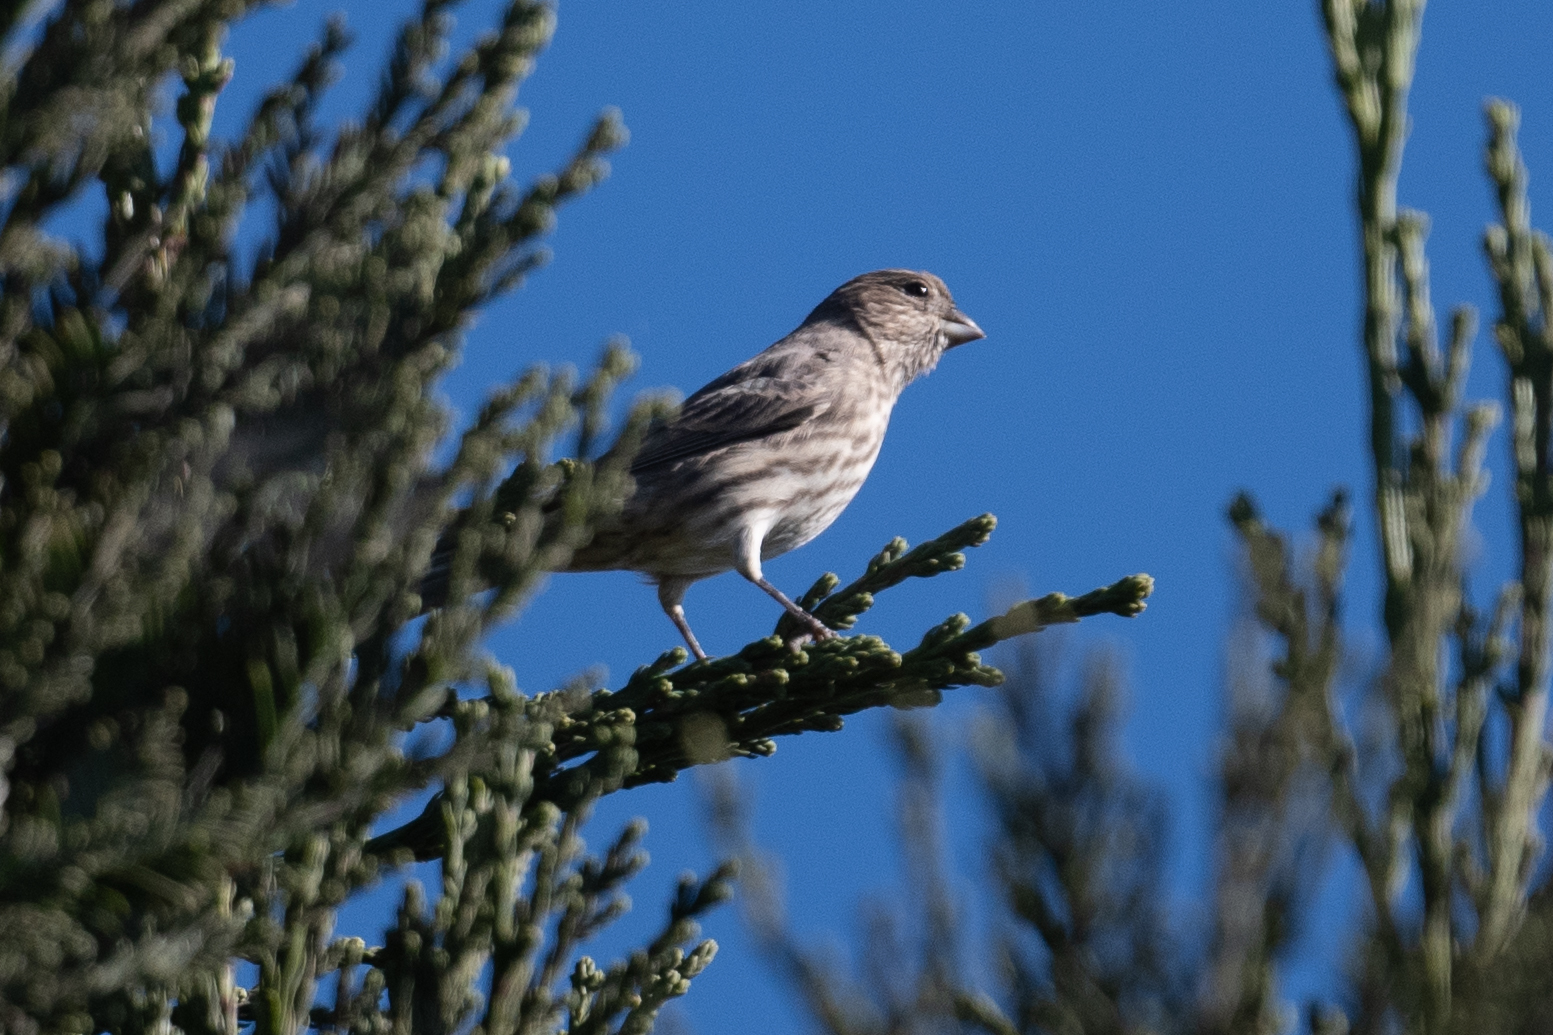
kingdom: Animalia
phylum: Chordata
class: Aves
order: Passeriformes
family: Fringillidae
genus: Haemorhous
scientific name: Haemorhous mexicanus
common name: House finch
